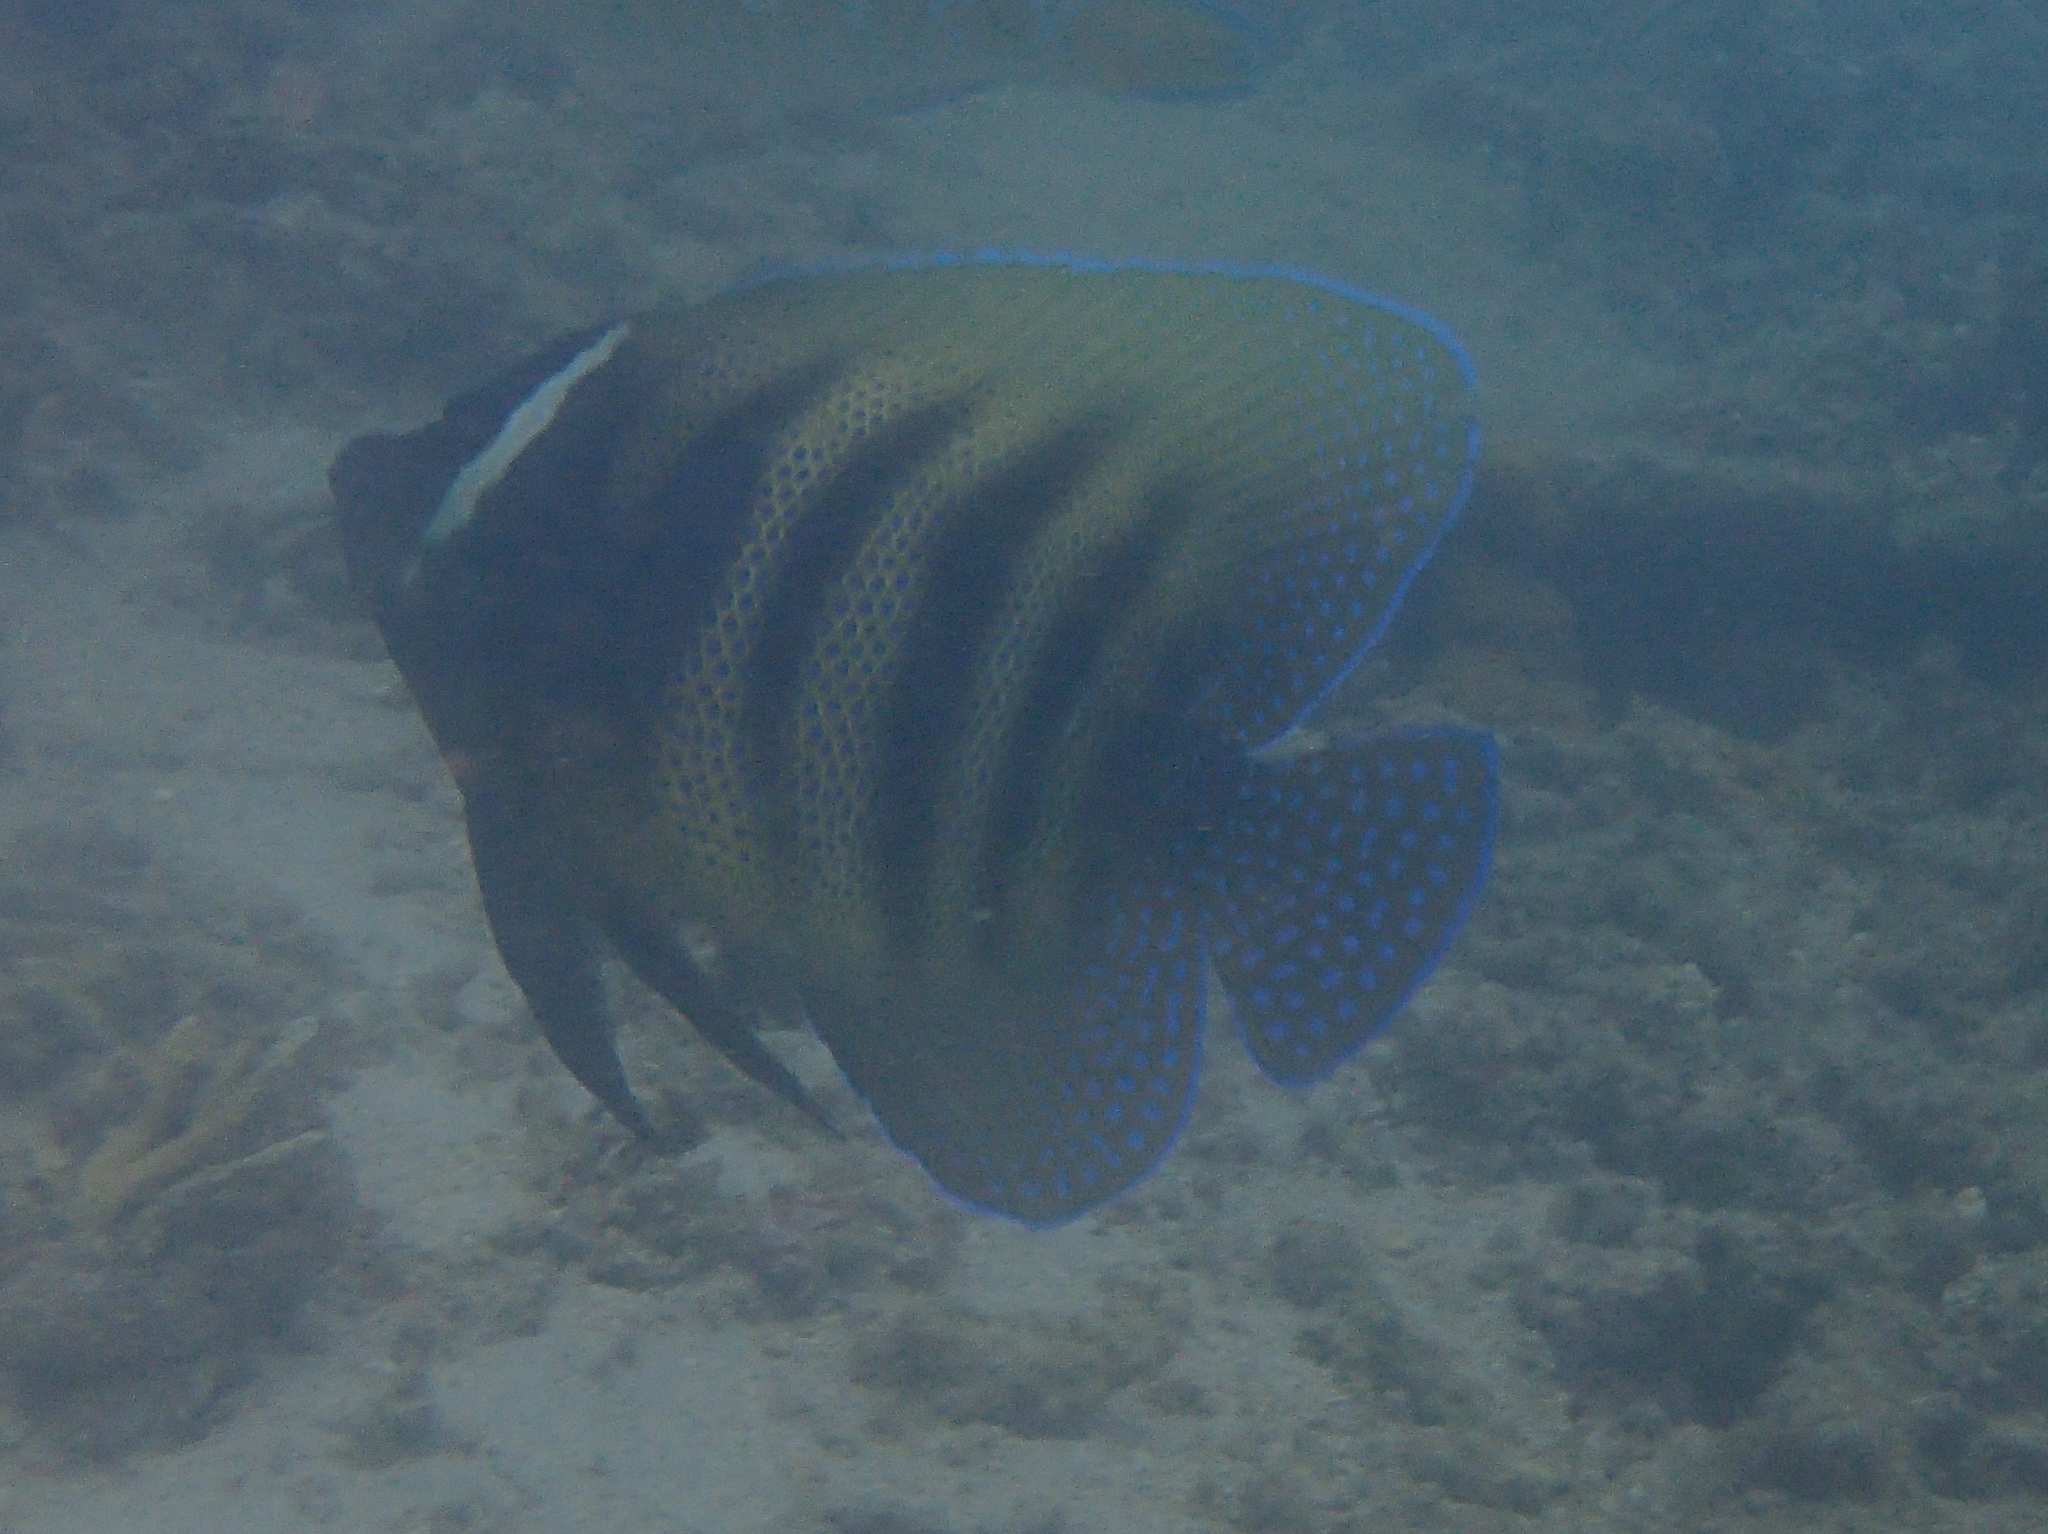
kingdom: Animalia
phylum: Chordata
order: Perciformes
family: Pomacanthidae
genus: Pomacanthus
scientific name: Pomacanthus sexstriatus
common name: Six-banded angelfish
